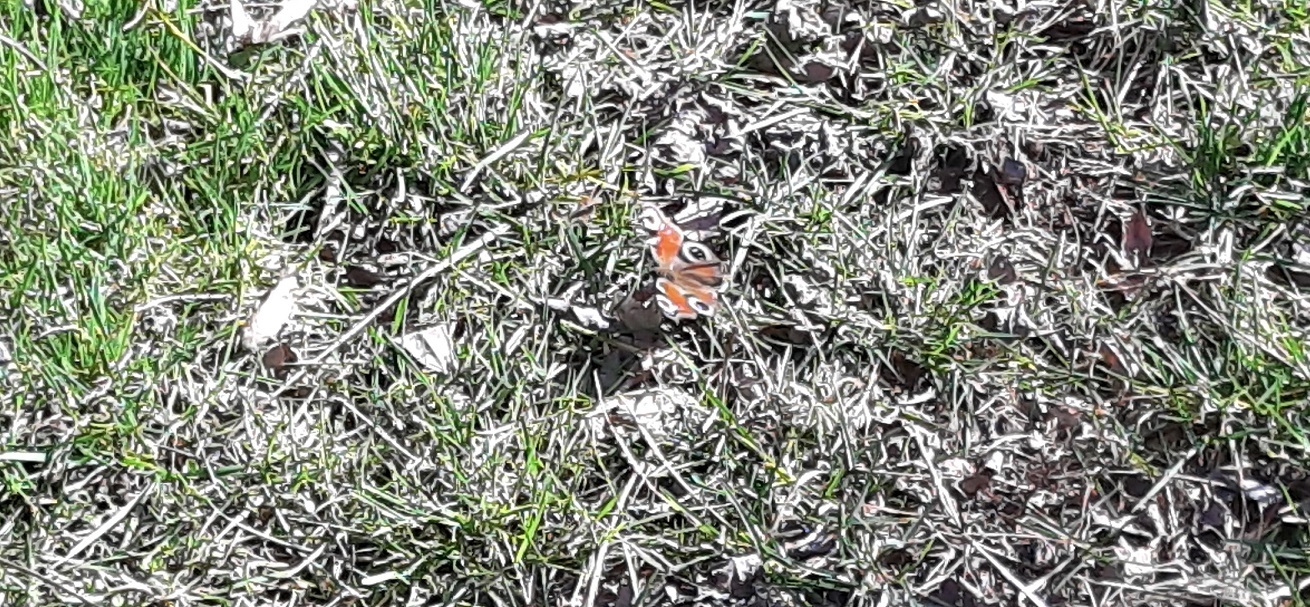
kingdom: Animalia
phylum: Arthropoda
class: Insecta
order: Lepidoptera
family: Nymphalidae
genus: Aglais
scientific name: Aglais io
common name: Peacock
